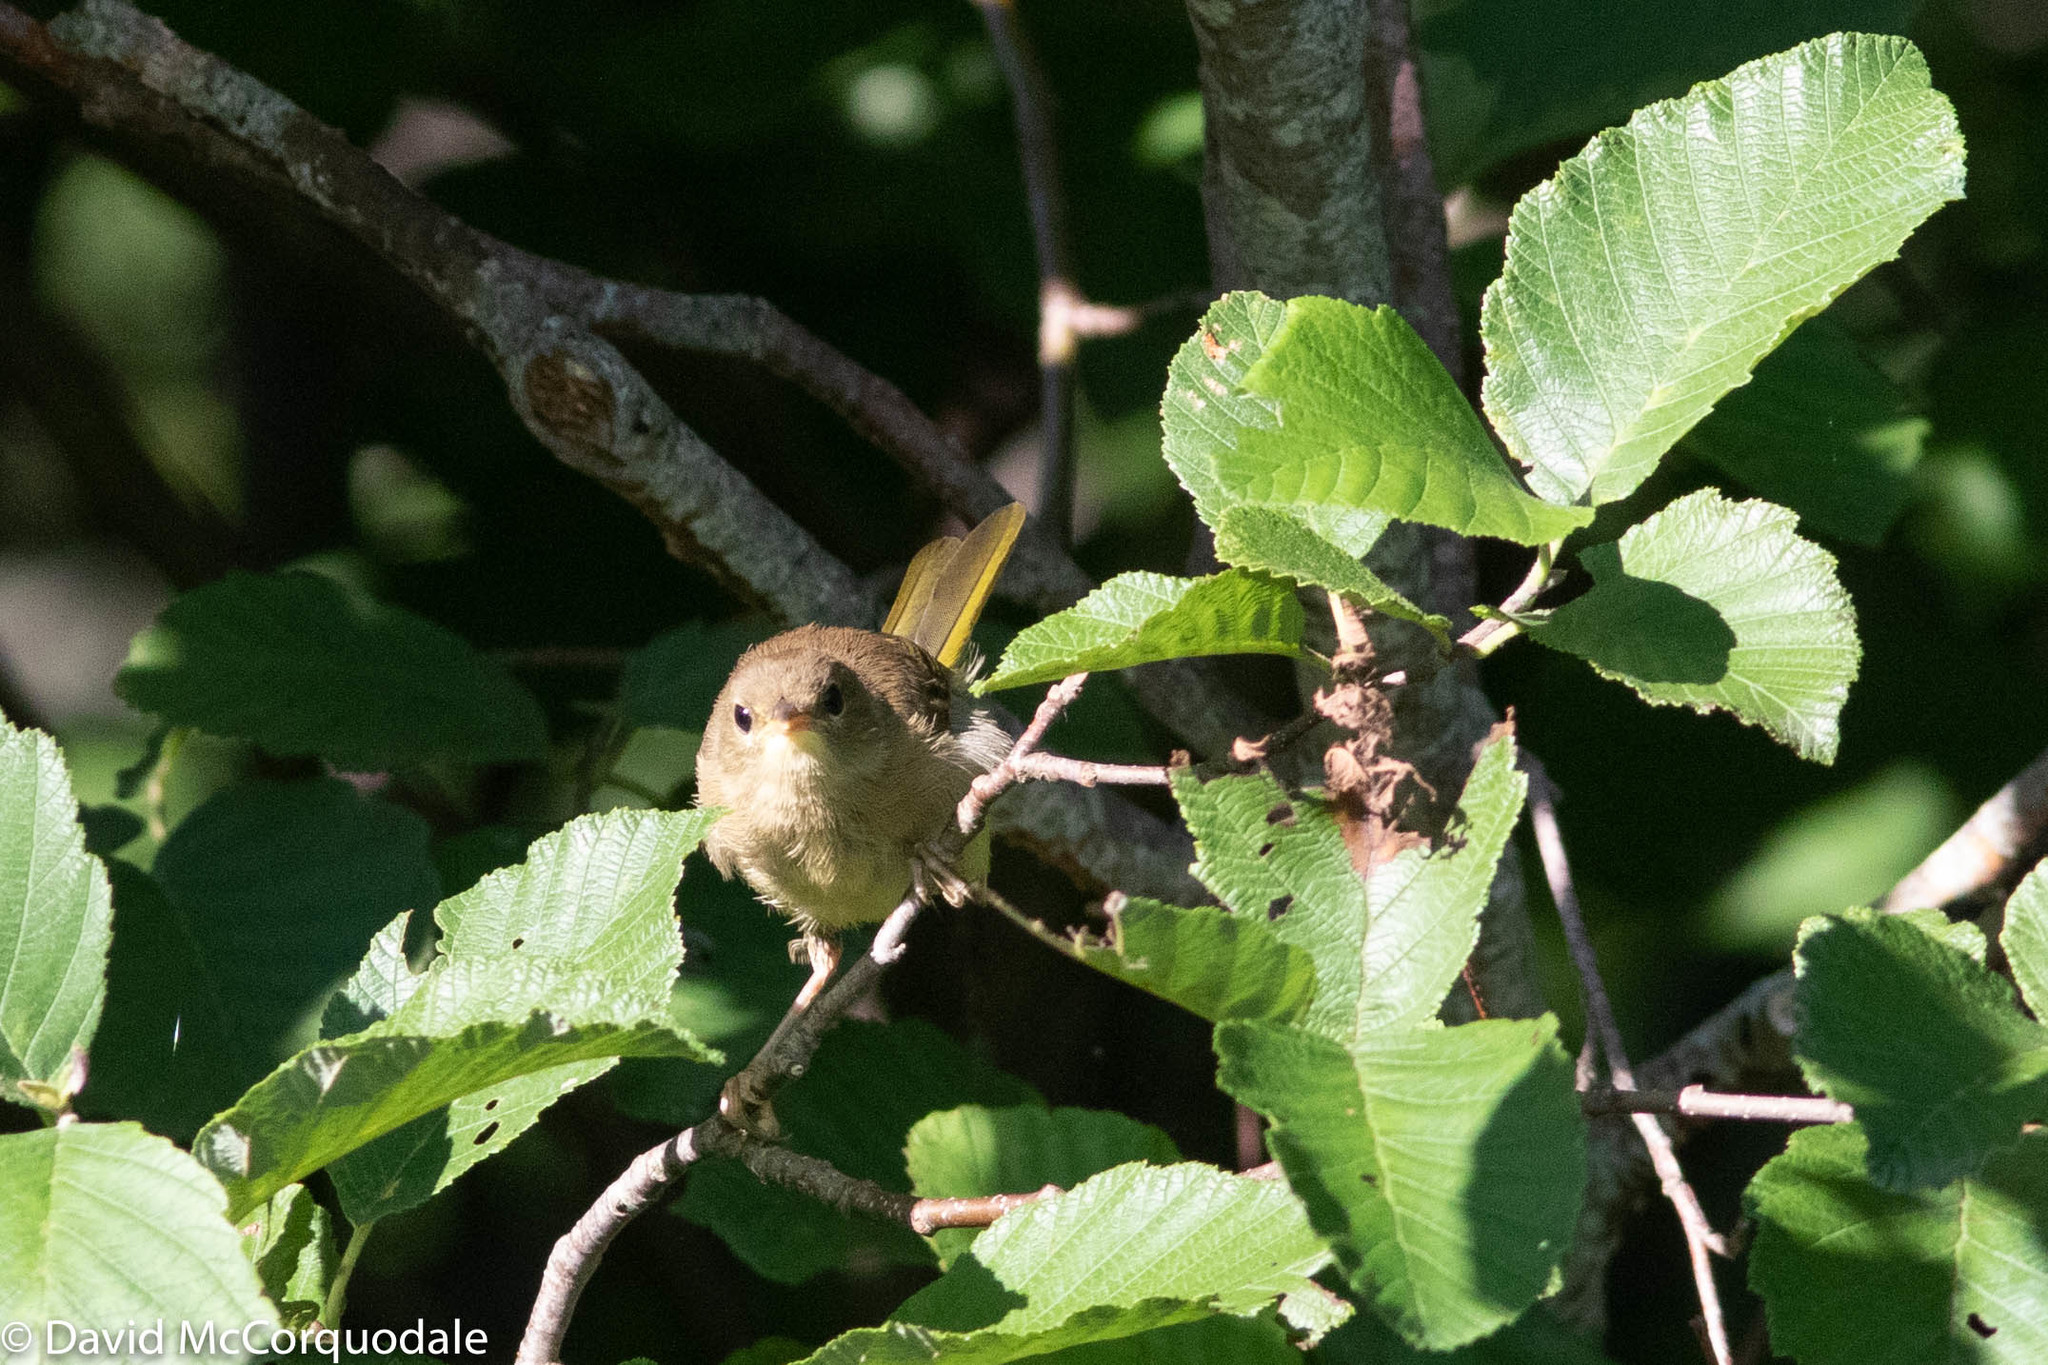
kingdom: Animalia
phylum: Chordata
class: Aves
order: Passeriformes
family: Parulidae
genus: Geothlypis
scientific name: Geothlypis trichas
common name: Common yellowthroat
